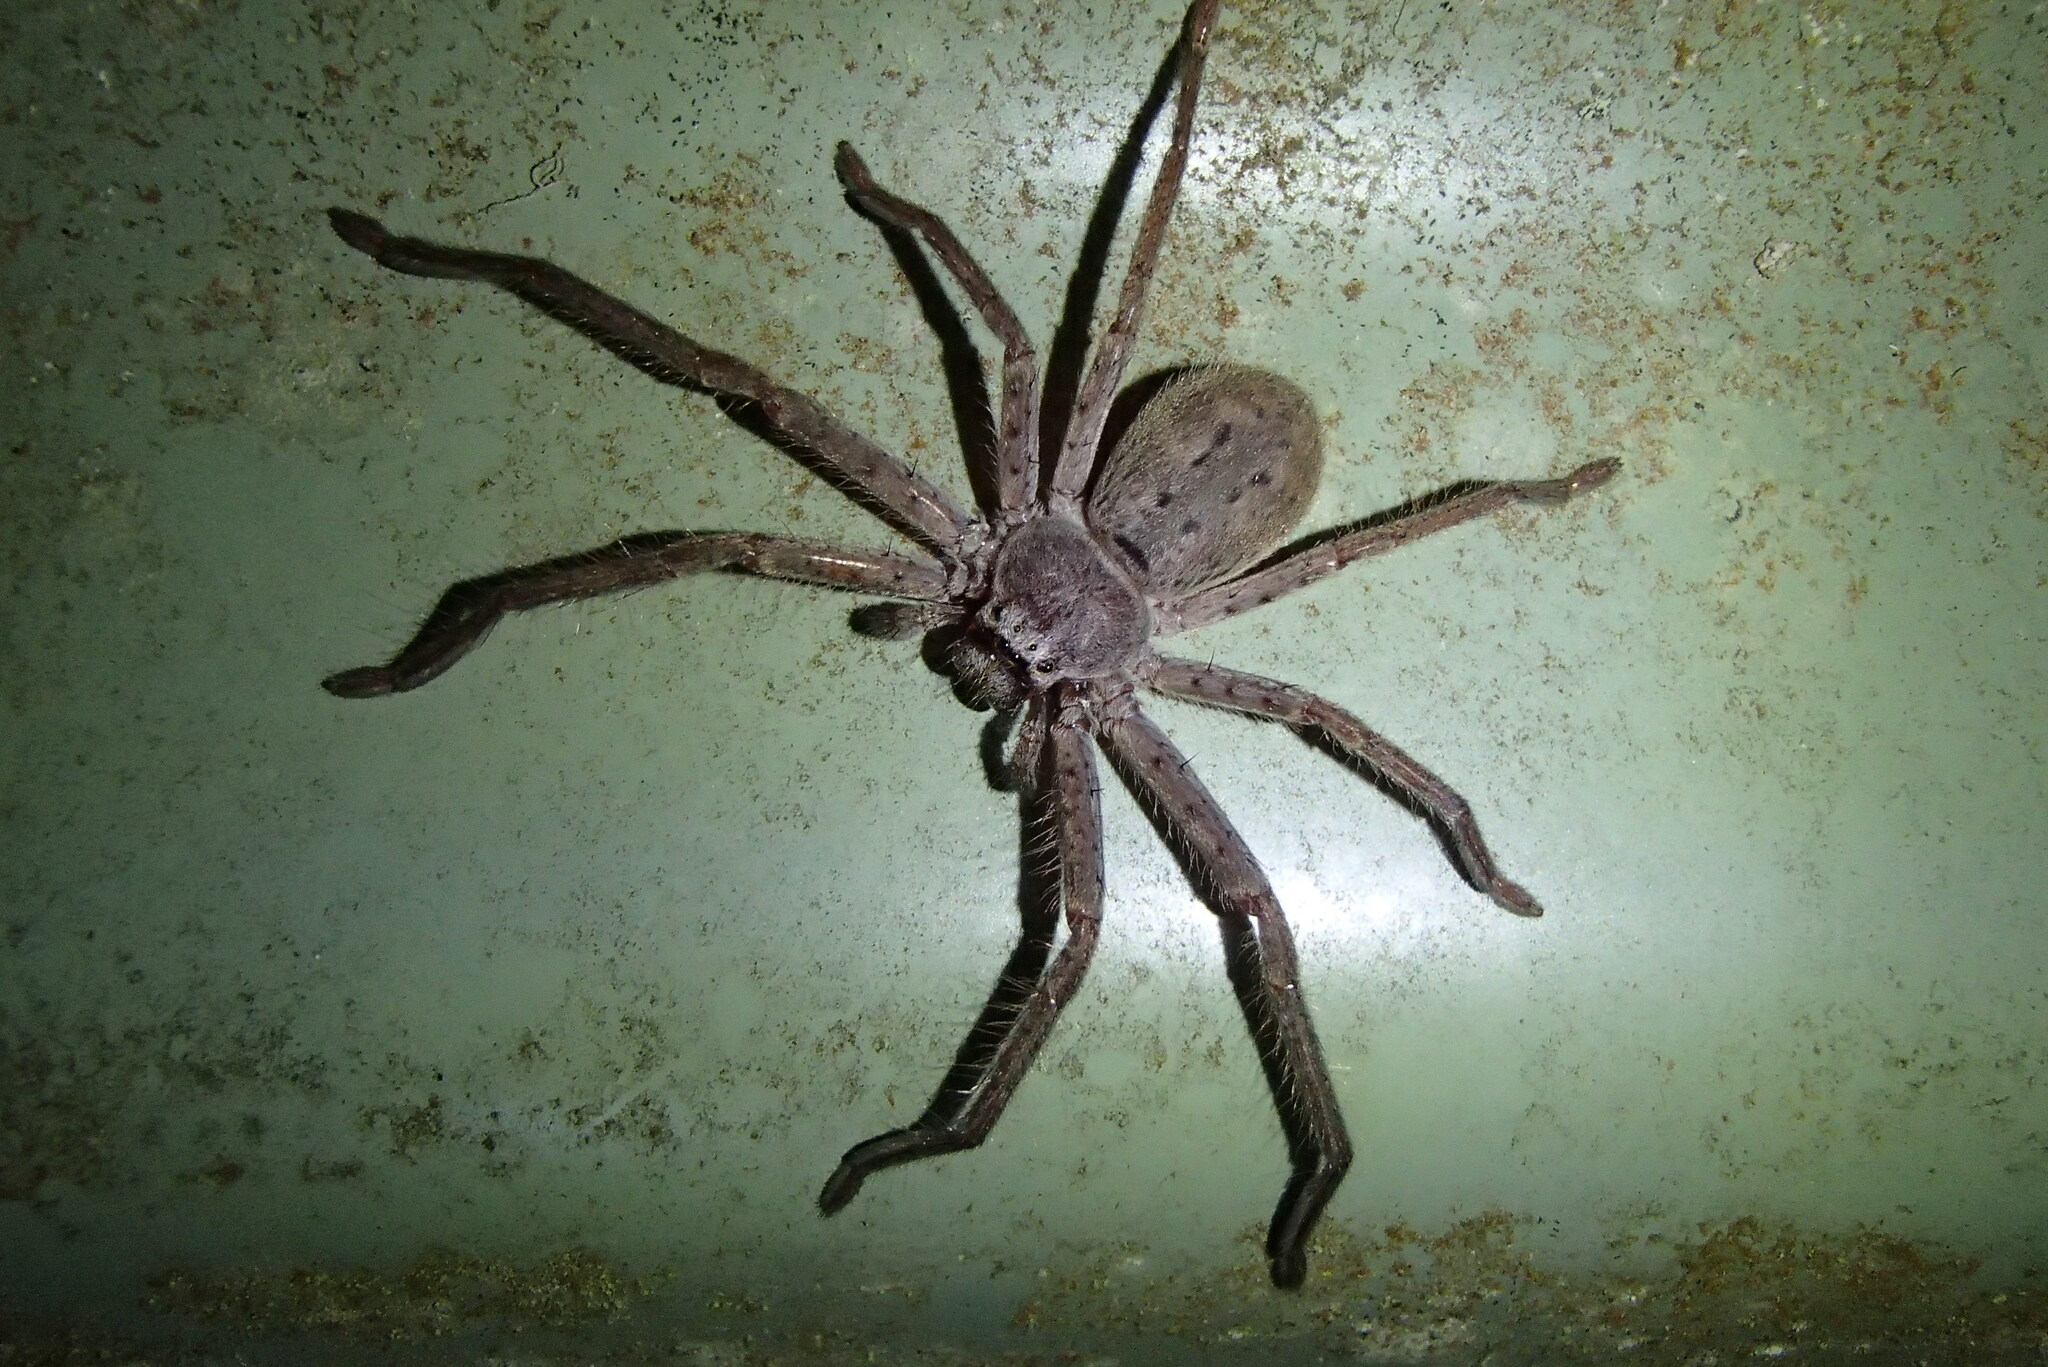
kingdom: Animalia
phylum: Arthropoda
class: Arachnida
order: Araneae
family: Sparassidae
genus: Isopeda
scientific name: Isopeda villosa
